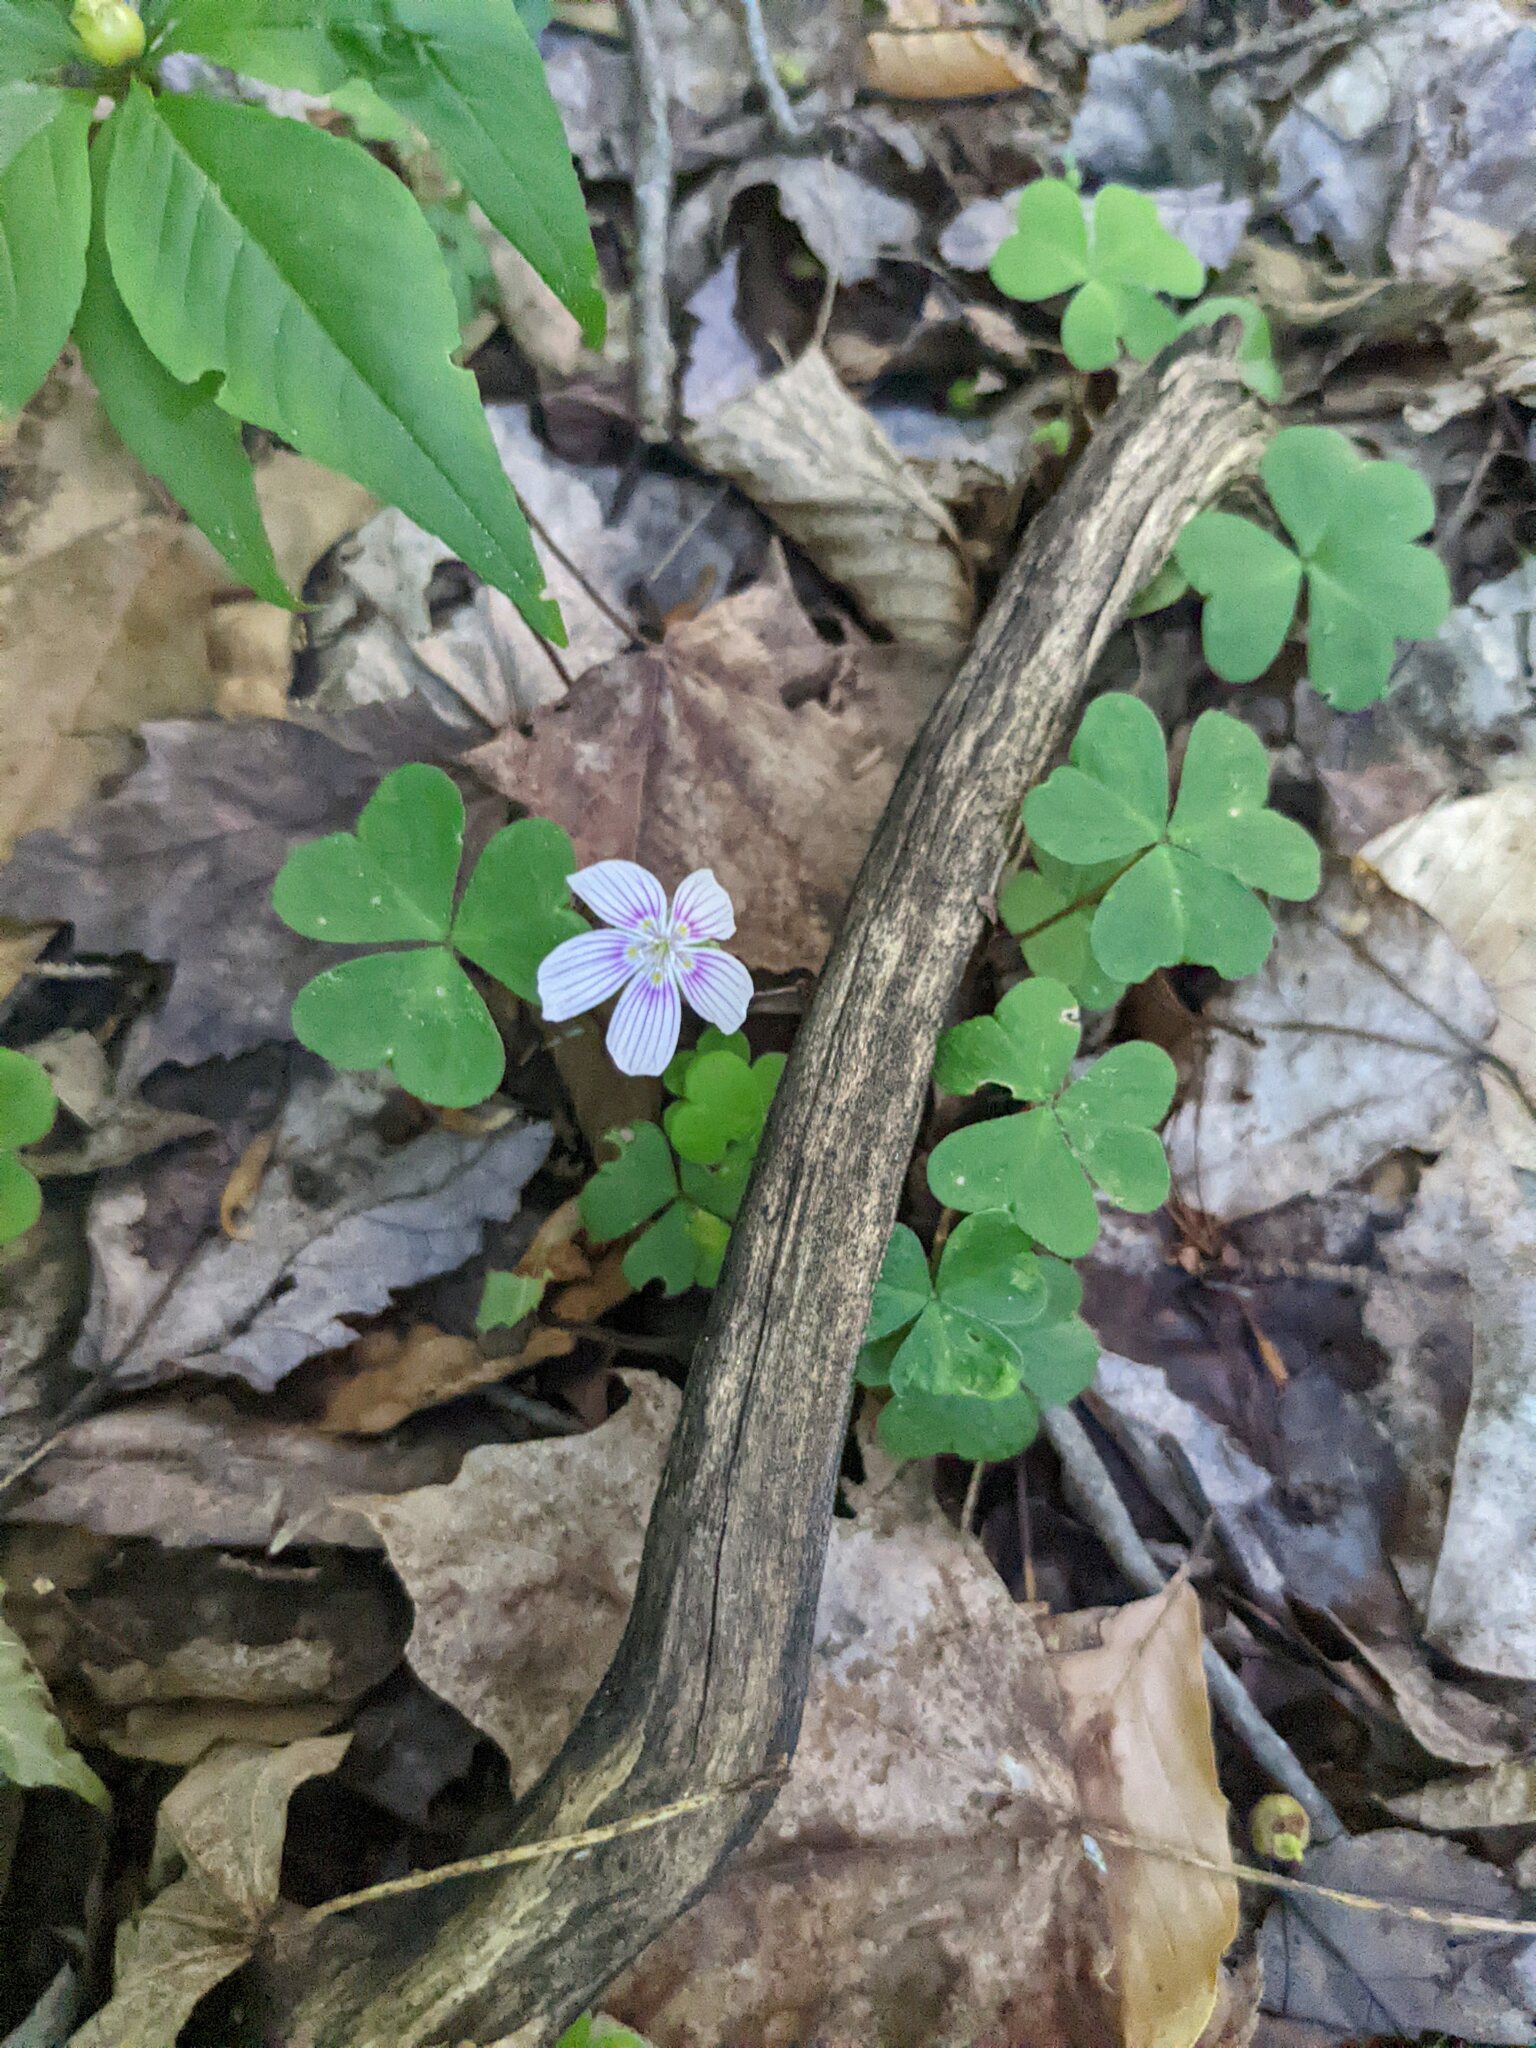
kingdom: Plantae
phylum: Tracheophyta
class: Magnoliopsida
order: Oxalidales
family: Oxalidaceae
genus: Oxalis
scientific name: Oxalis montana
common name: American wood-sorrel
